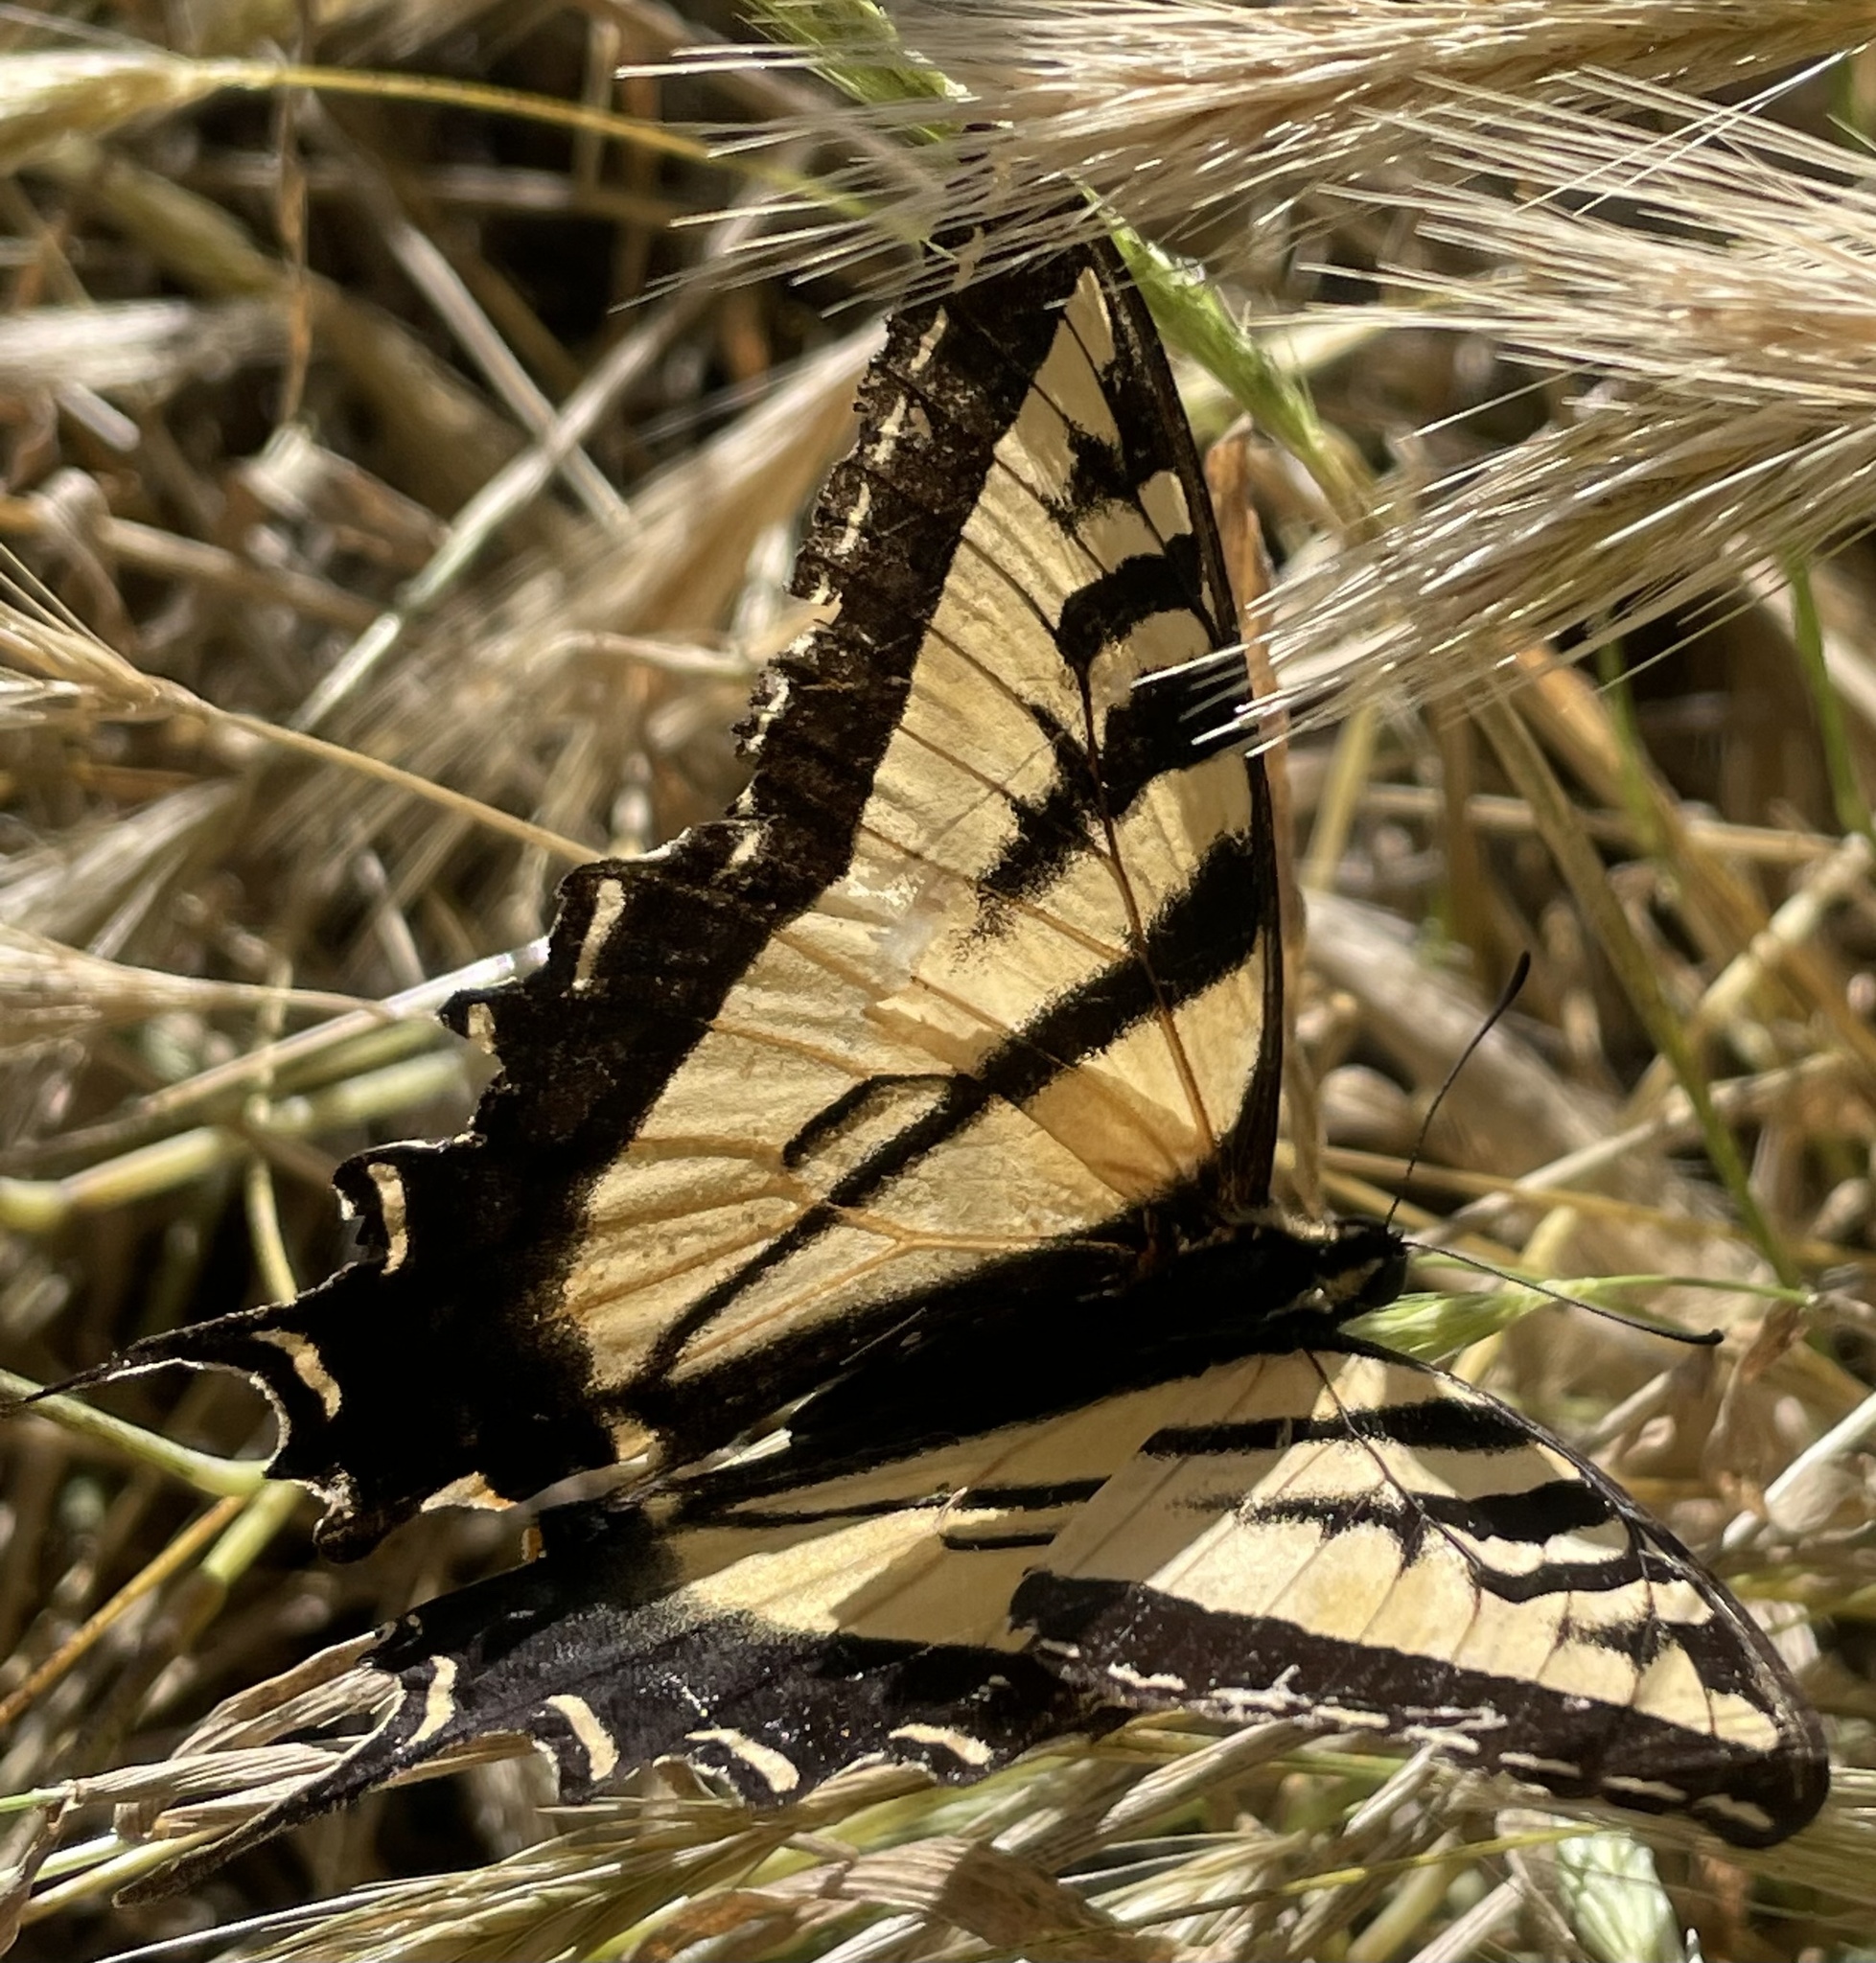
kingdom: Animalia
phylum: Arthropoda
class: Insecta
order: Lepidoptera
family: Papilionidae
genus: Papilio
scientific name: Papilio rutulus
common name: Western tiger swallowtail
